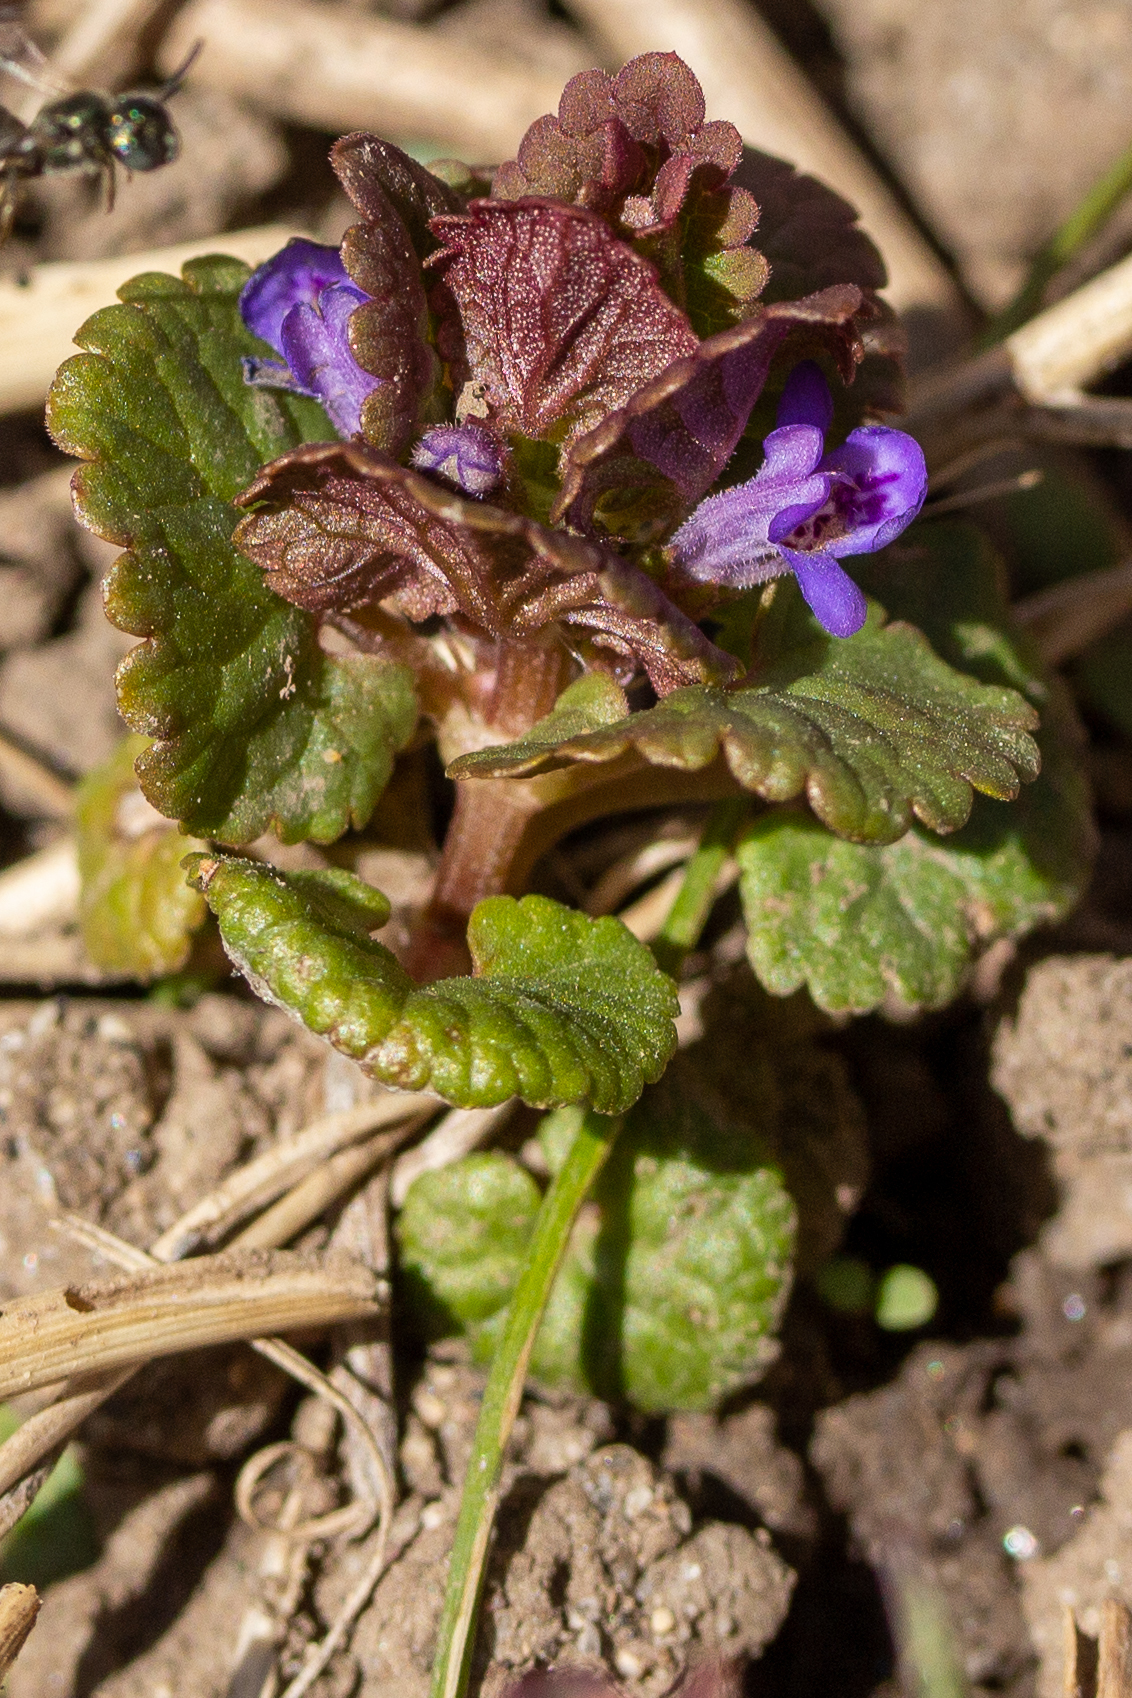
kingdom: Plantae
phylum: Tracheophyta
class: Magnoliopsida
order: Lamiales
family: Lamiaceae
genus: Glechoma
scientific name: Glechoma hederacea
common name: Ground ivy
